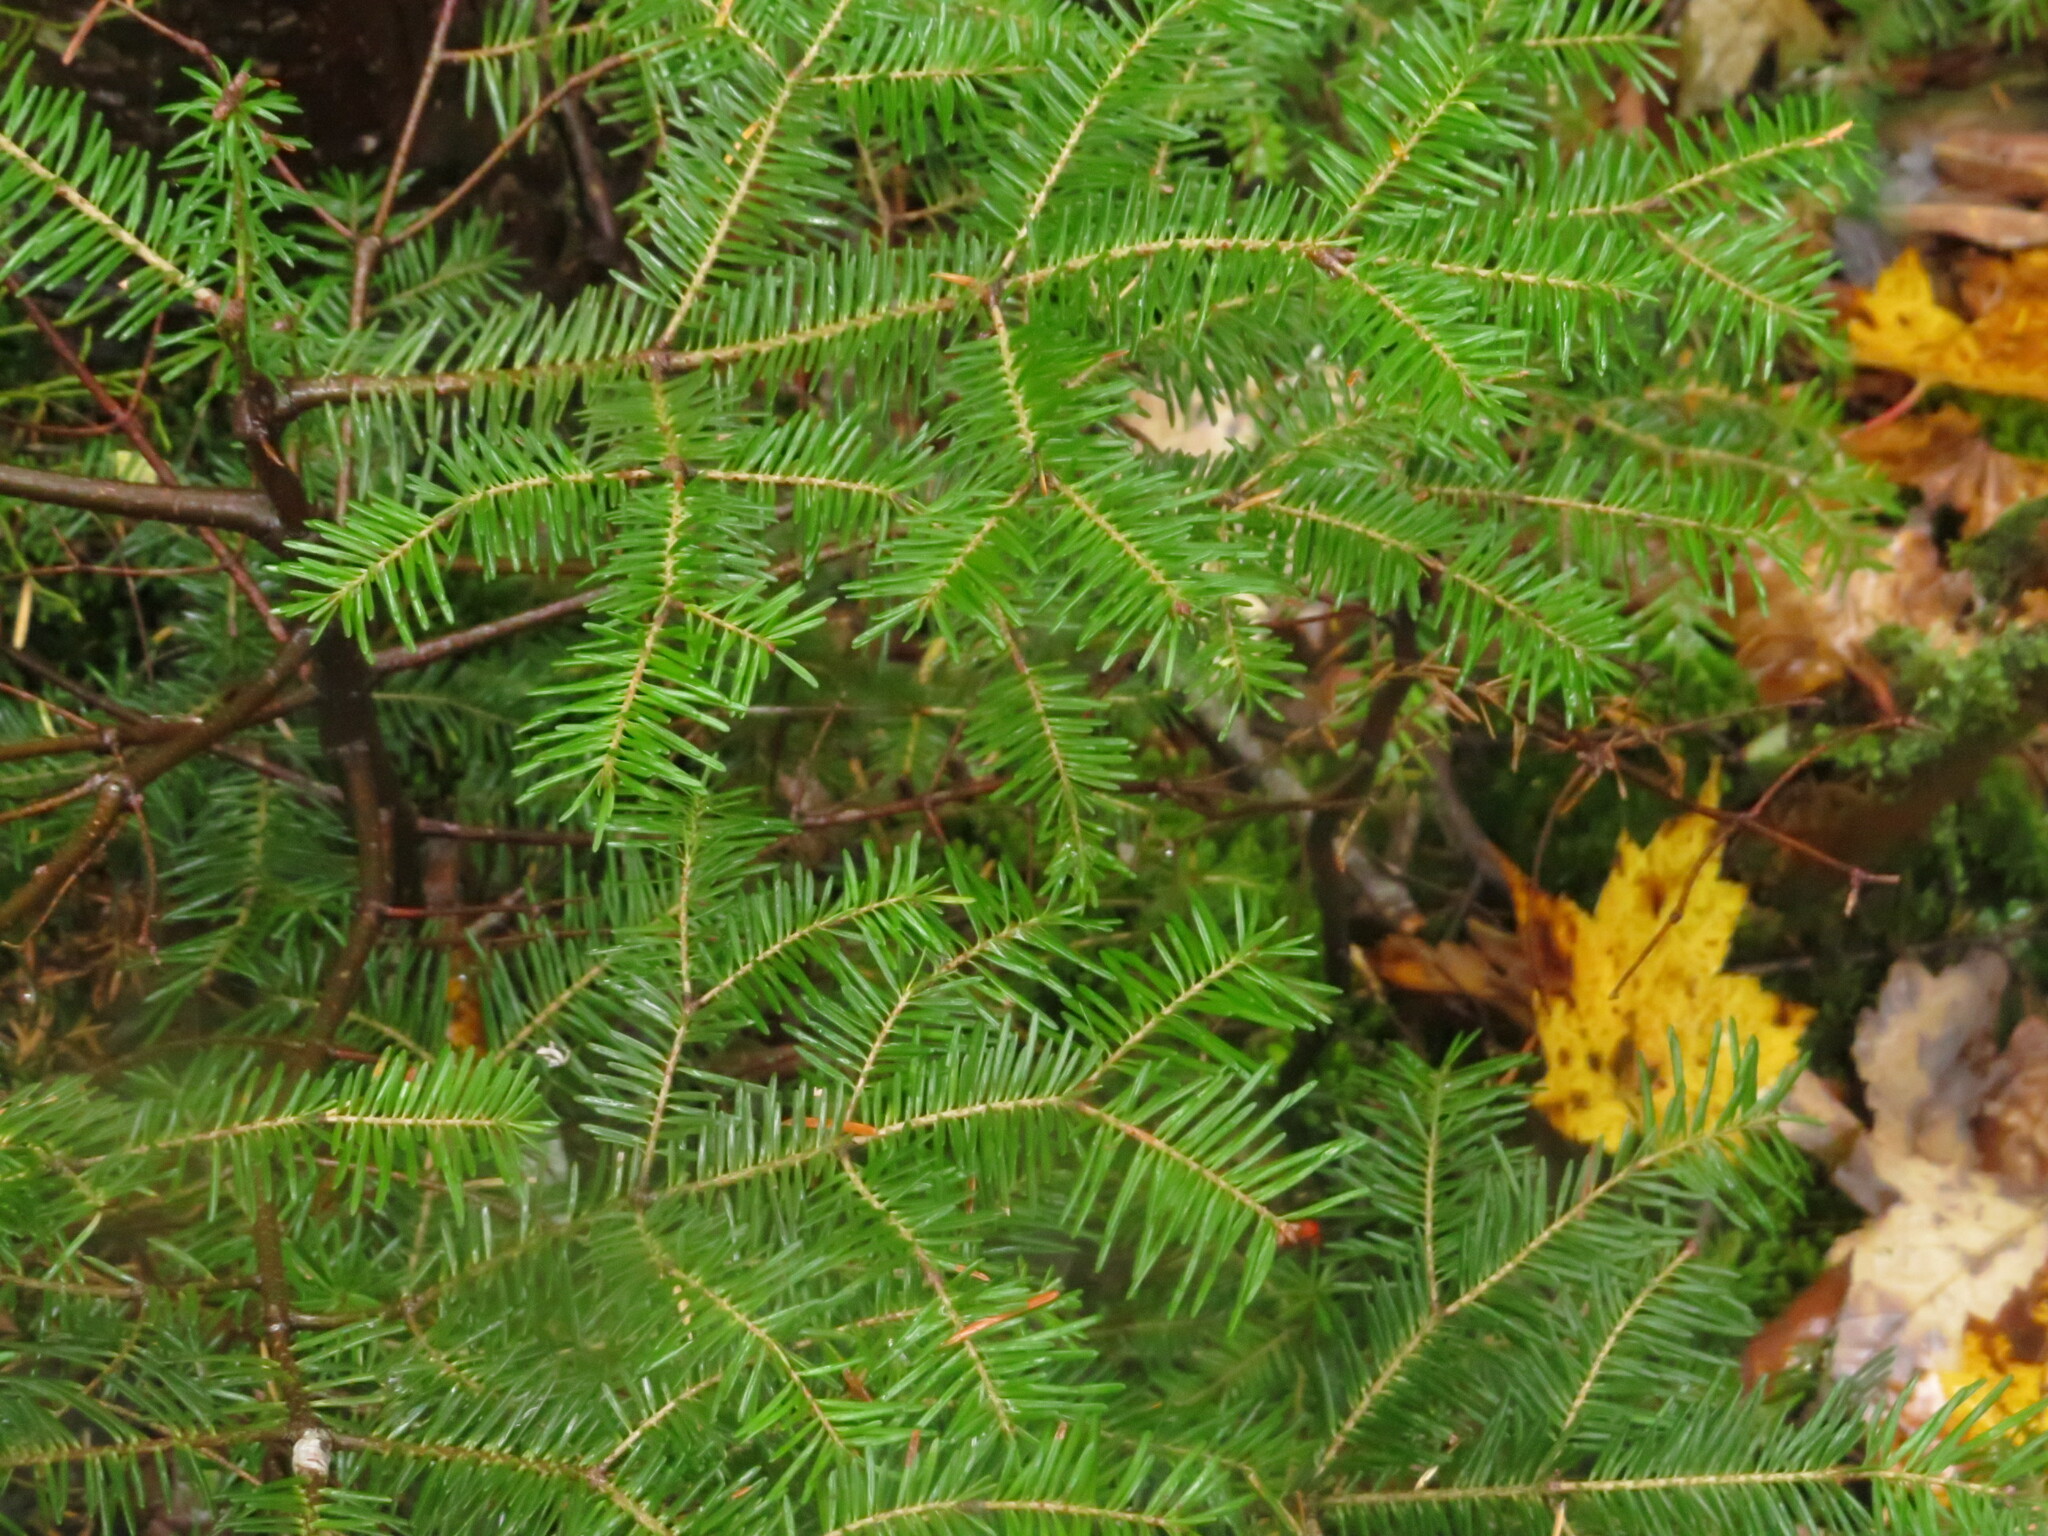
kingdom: Plantae
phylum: Tracheophyta
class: Pinopsida
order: Pinales
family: Pinaceae
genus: Abies
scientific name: Abies balsamea
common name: Balsam fir
